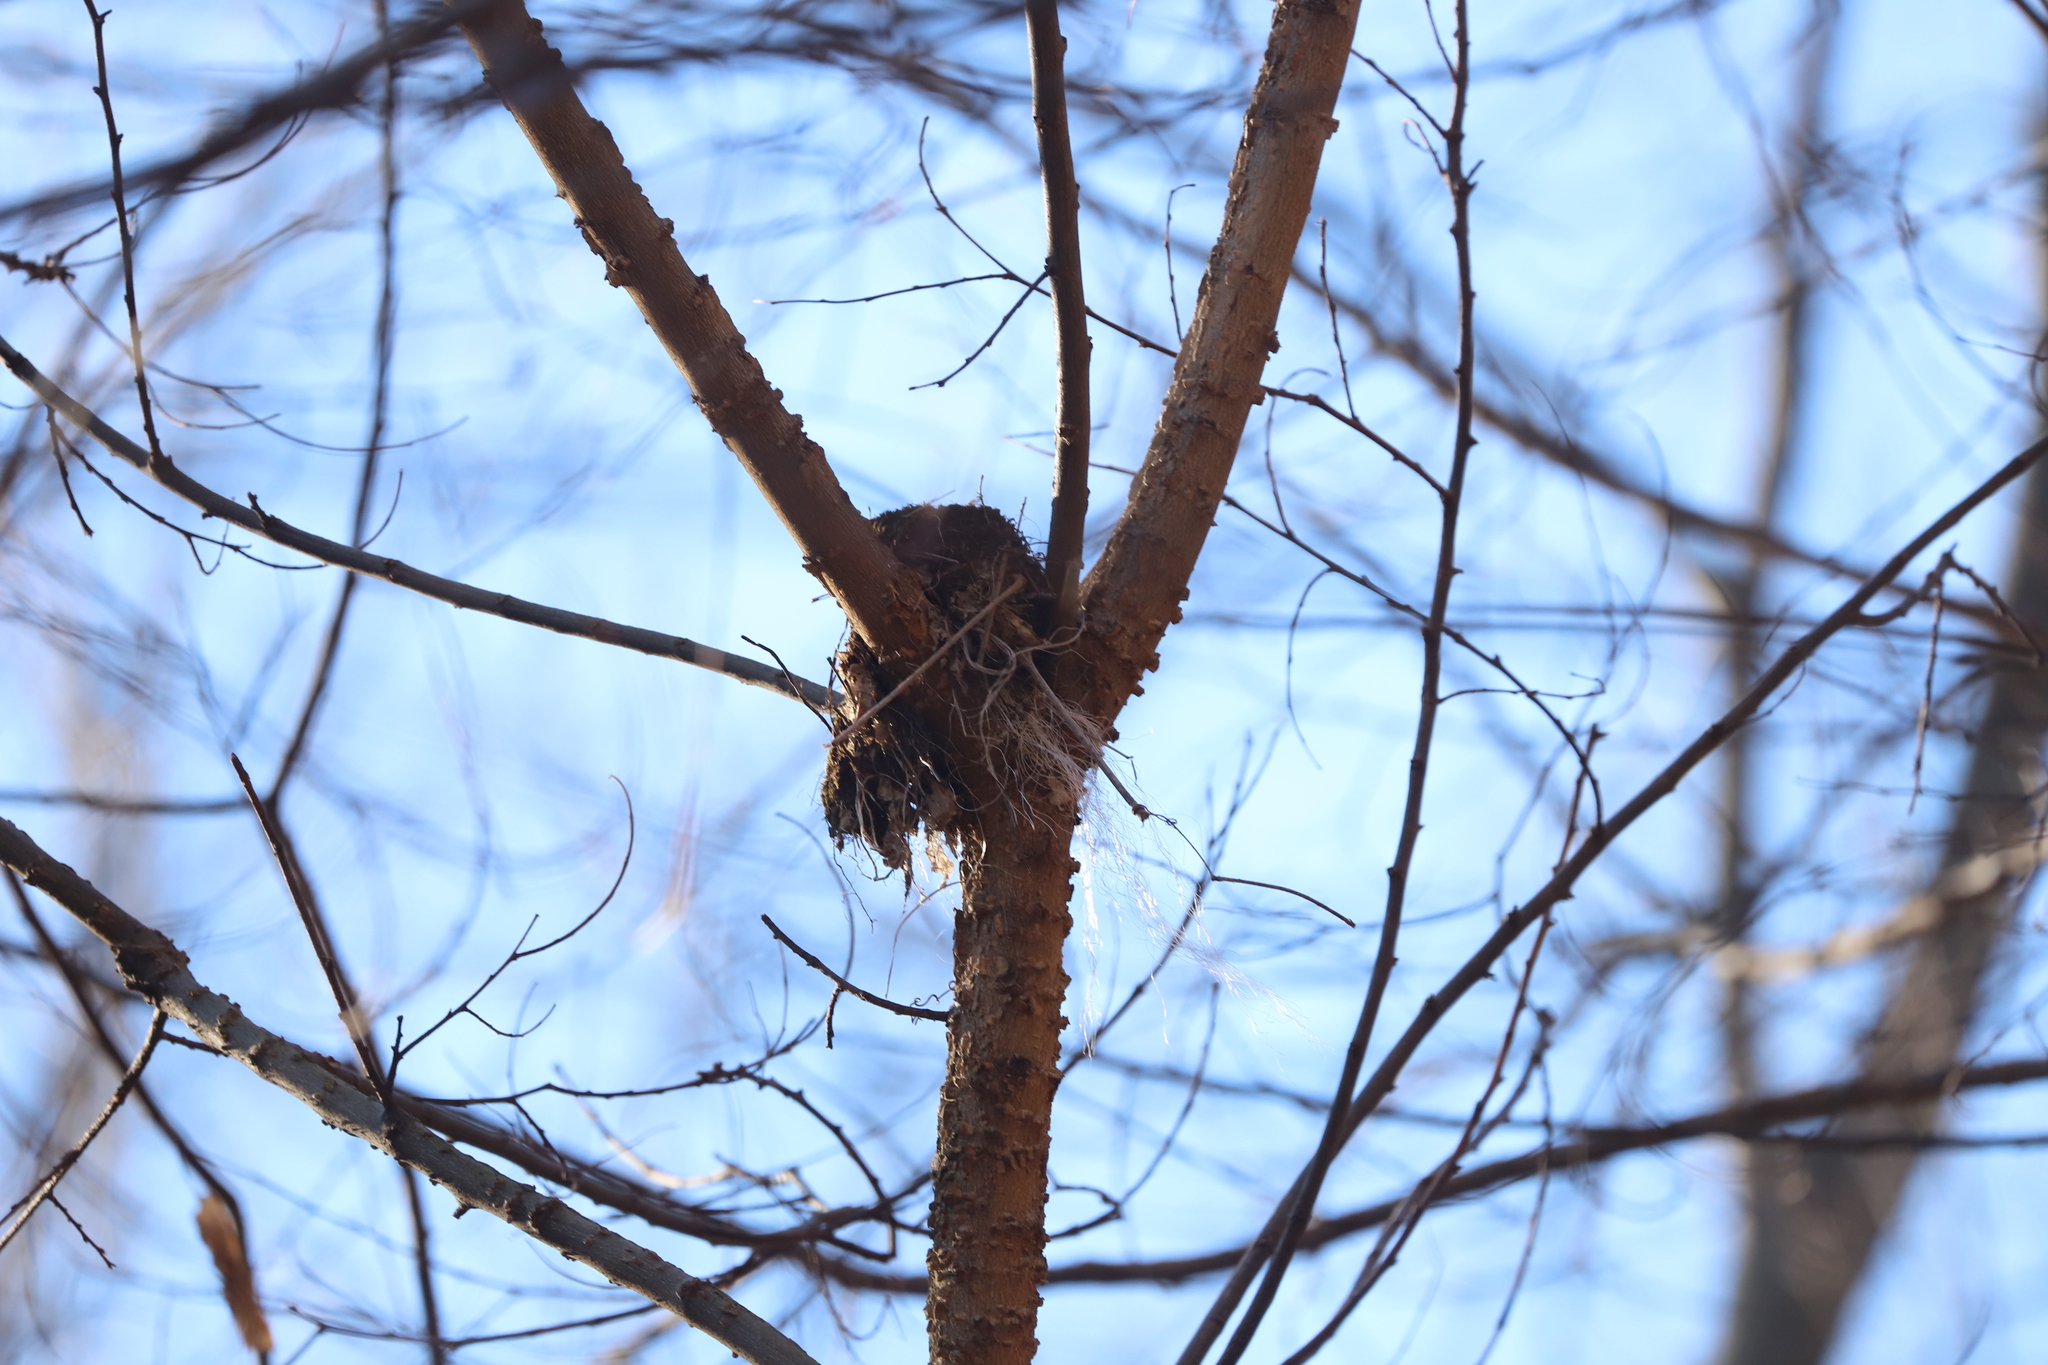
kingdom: Animalia
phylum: Chordata
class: Aves
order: Passeriformes
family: Turdidae
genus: Turdus
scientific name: Turdus migratorius
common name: American robin
